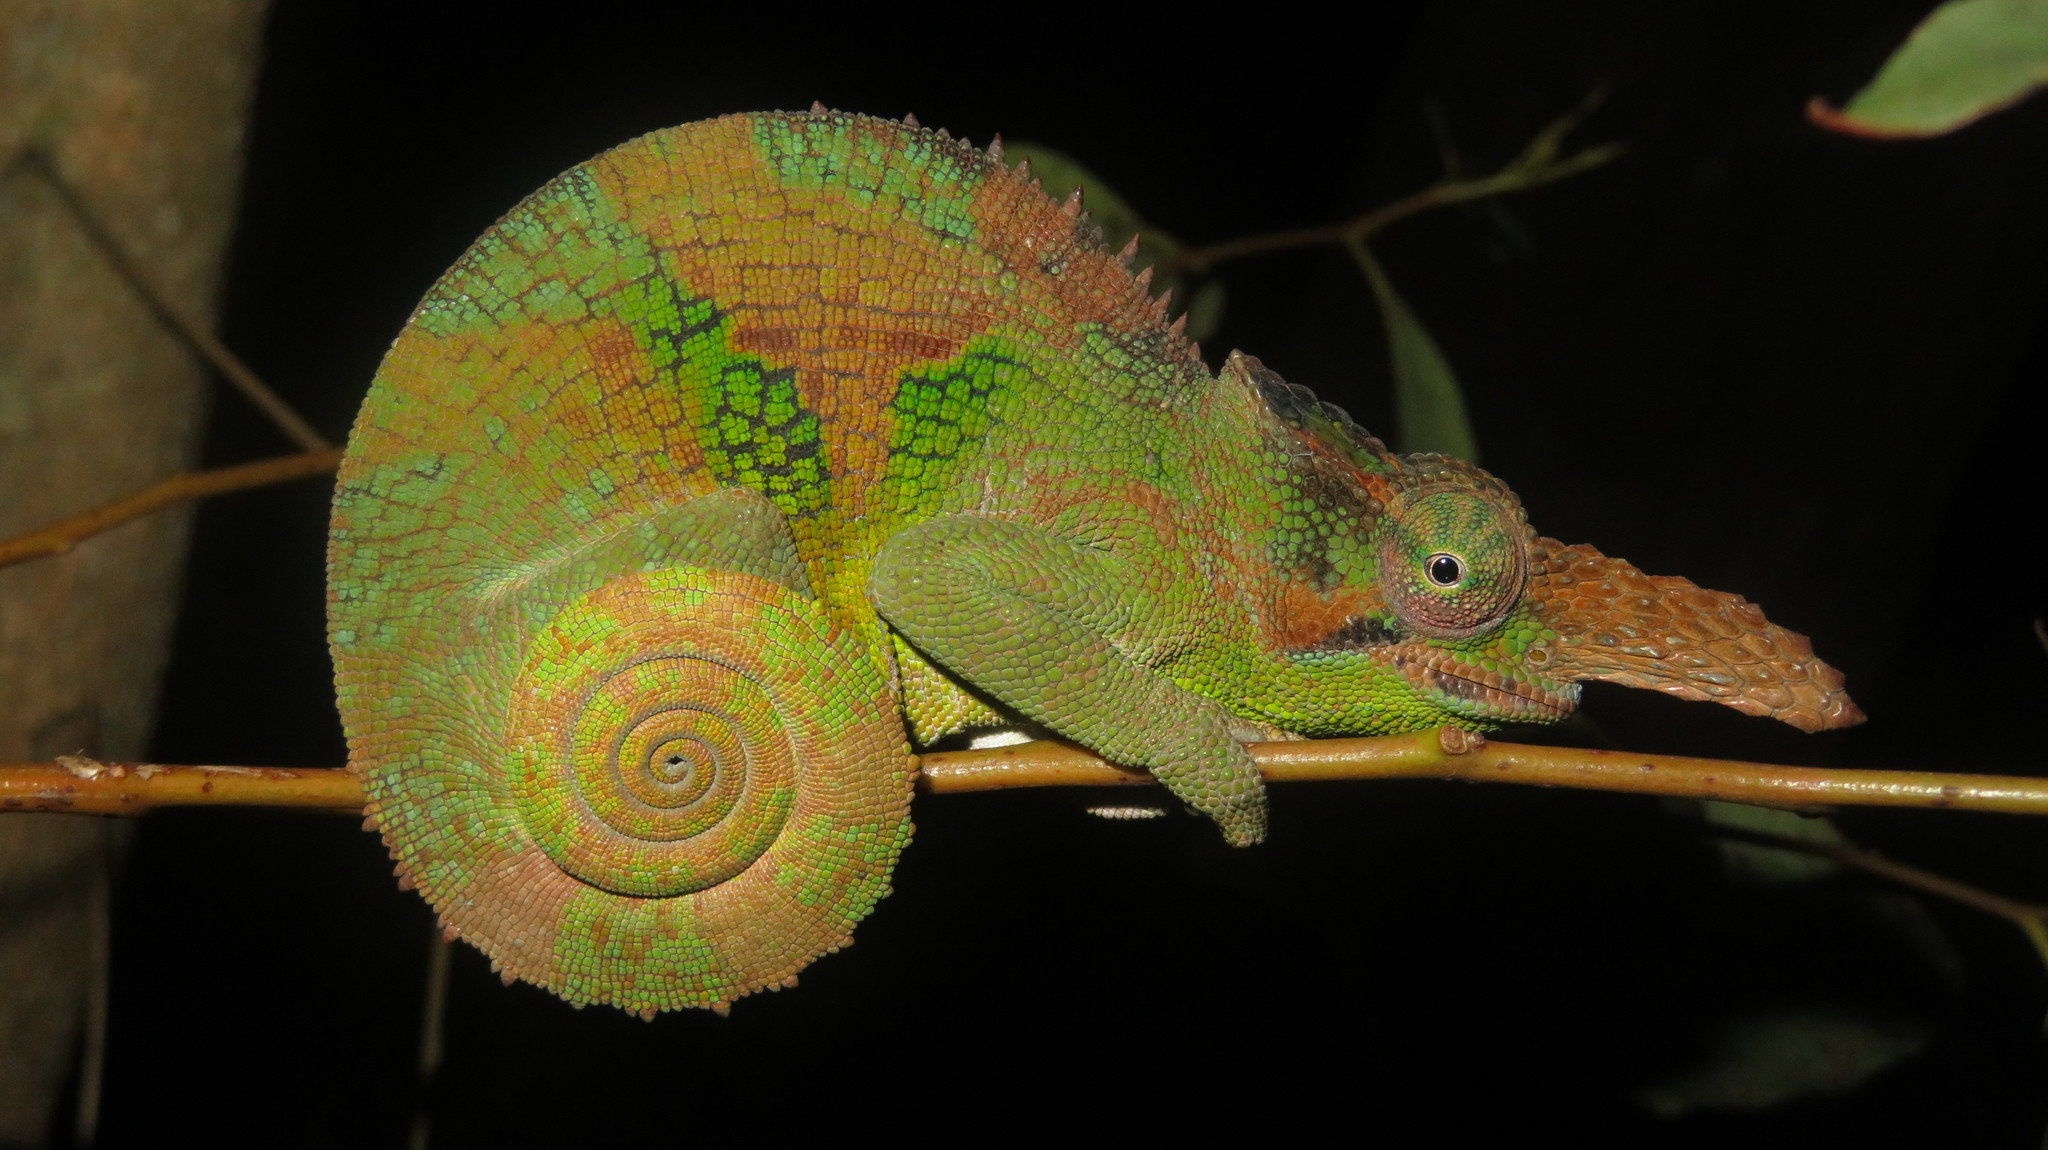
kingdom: Animalia
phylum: Chordata
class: Squamata
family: Chamaeleonidae
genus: Kinyongia
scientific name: Kinyongia vosseleri
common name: Vosseler's blade-horned chameleon
